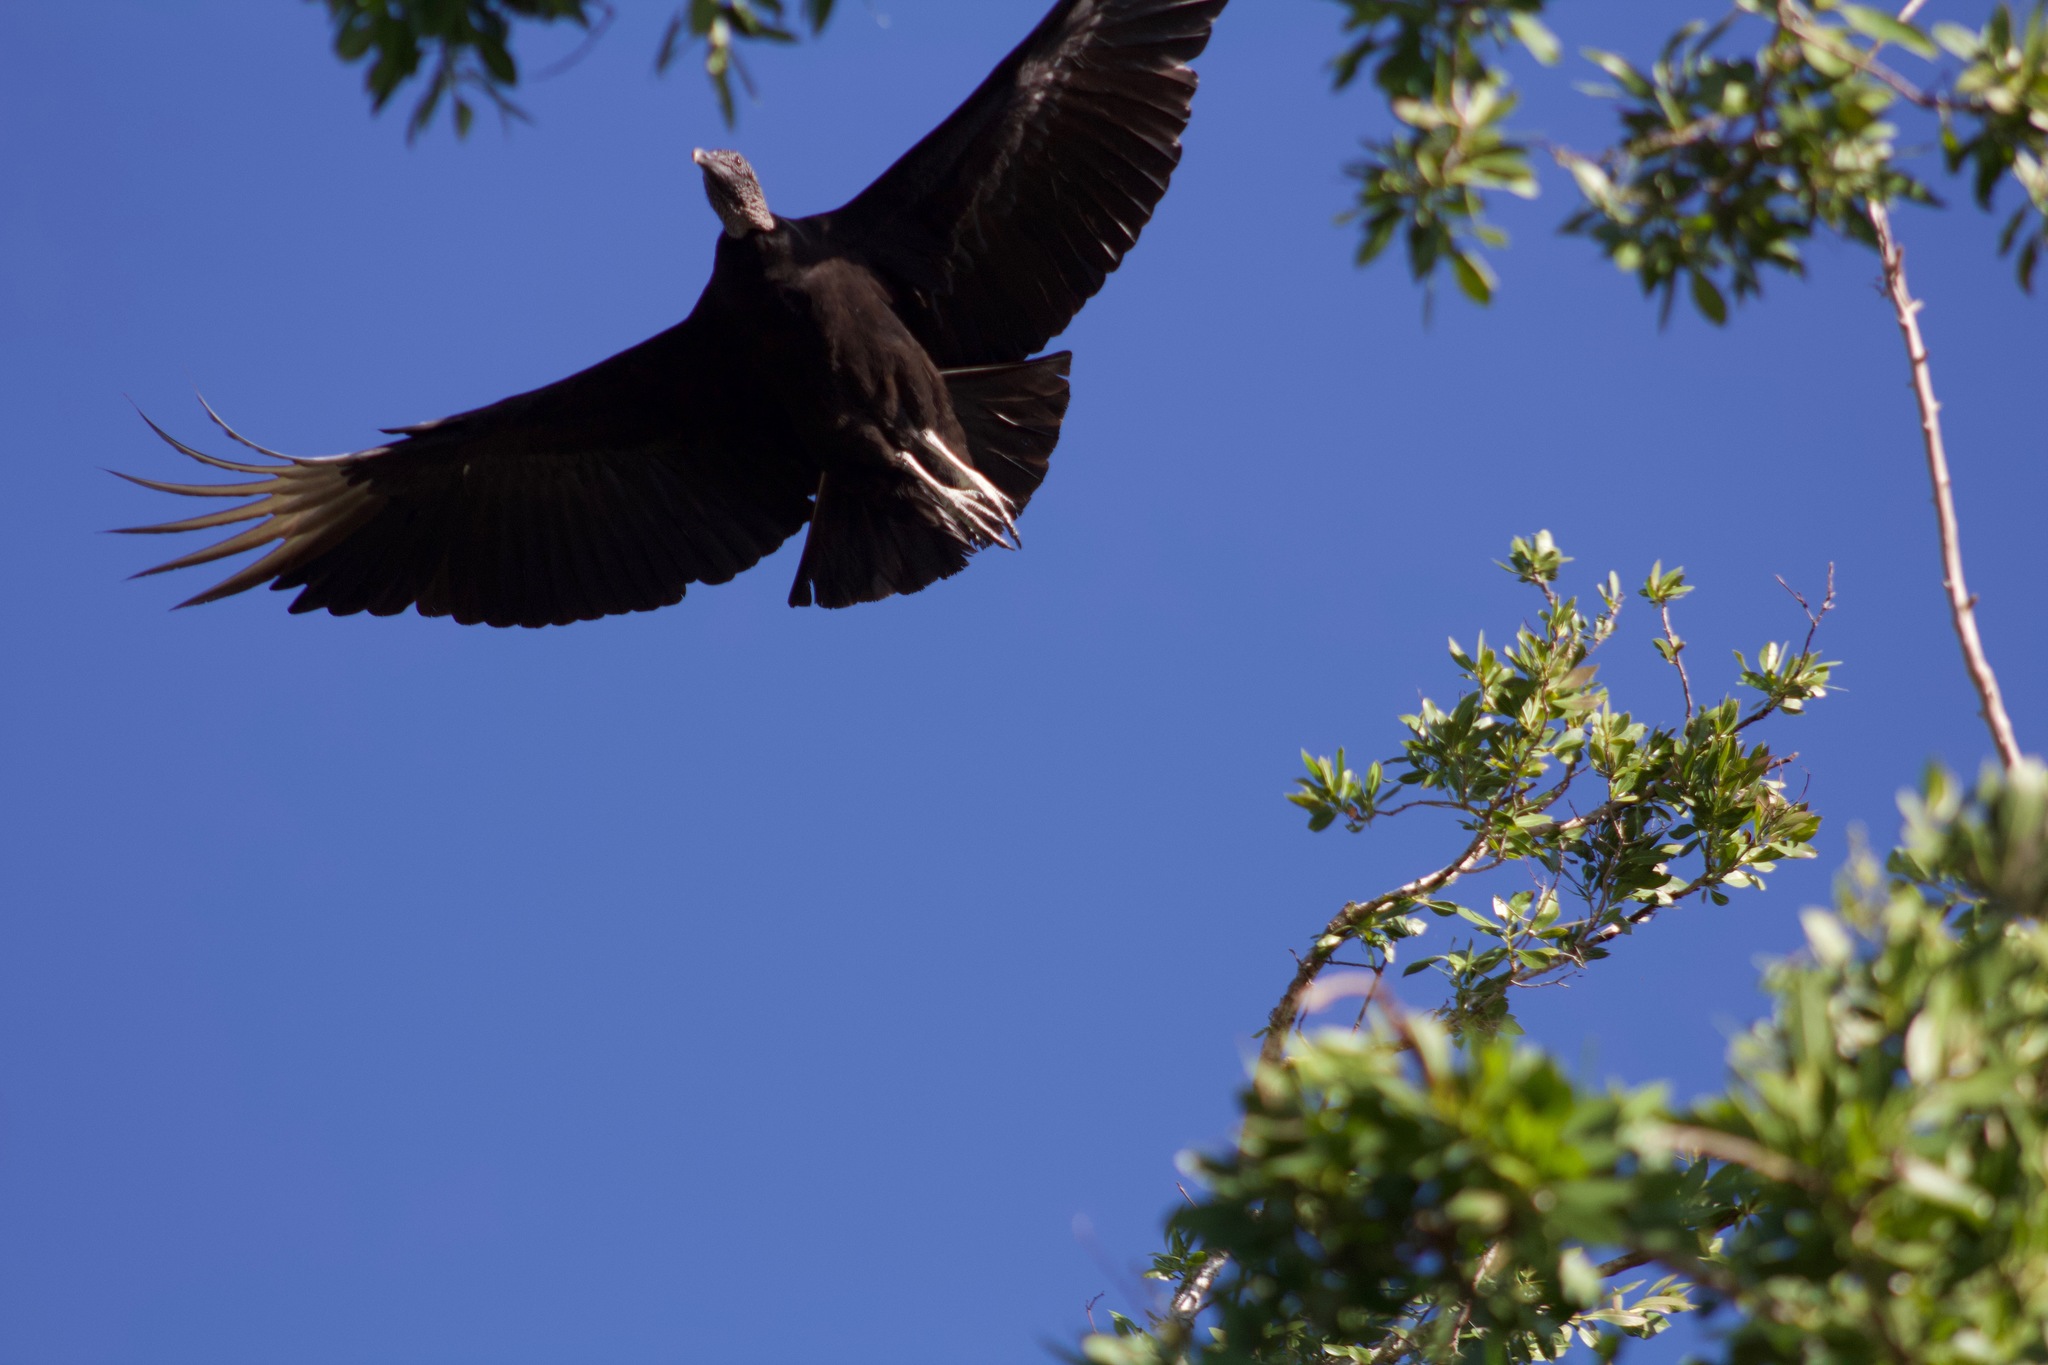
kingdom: Animalia
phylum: Chordata
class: Aves
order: Accipitriformes
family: Cathartidae
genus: Coragyps
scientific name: Coragyps atratus
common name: Black vulture
